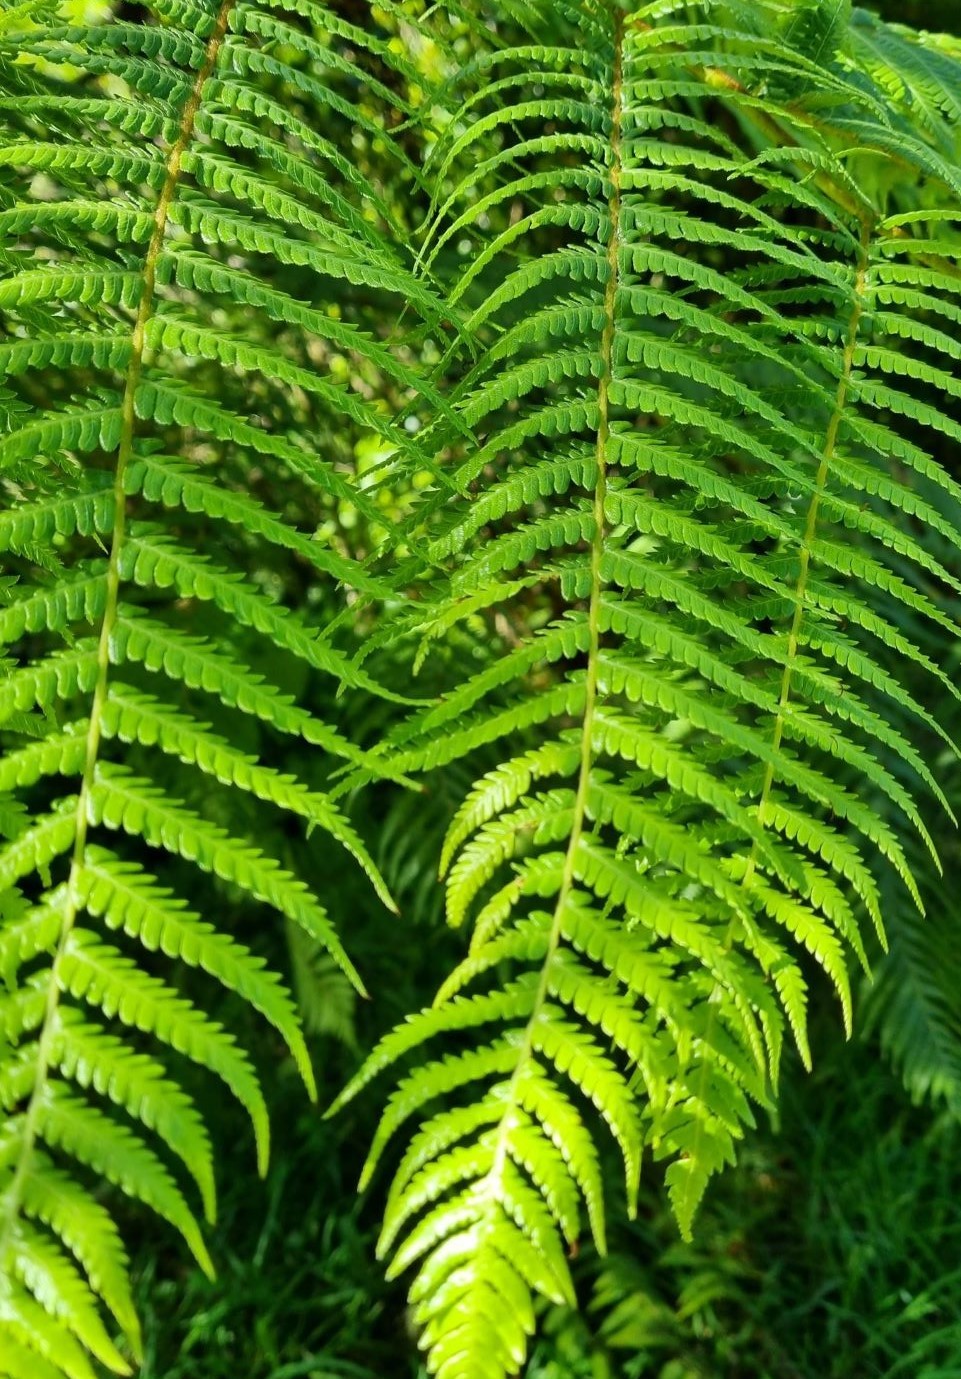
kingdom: Plantae
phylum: Tracheophyta
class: Polypodiopsida
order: Cyatheales
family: Cyatheaceae
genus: Sphaeropteris
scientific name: Sphaeropteris medullaris
